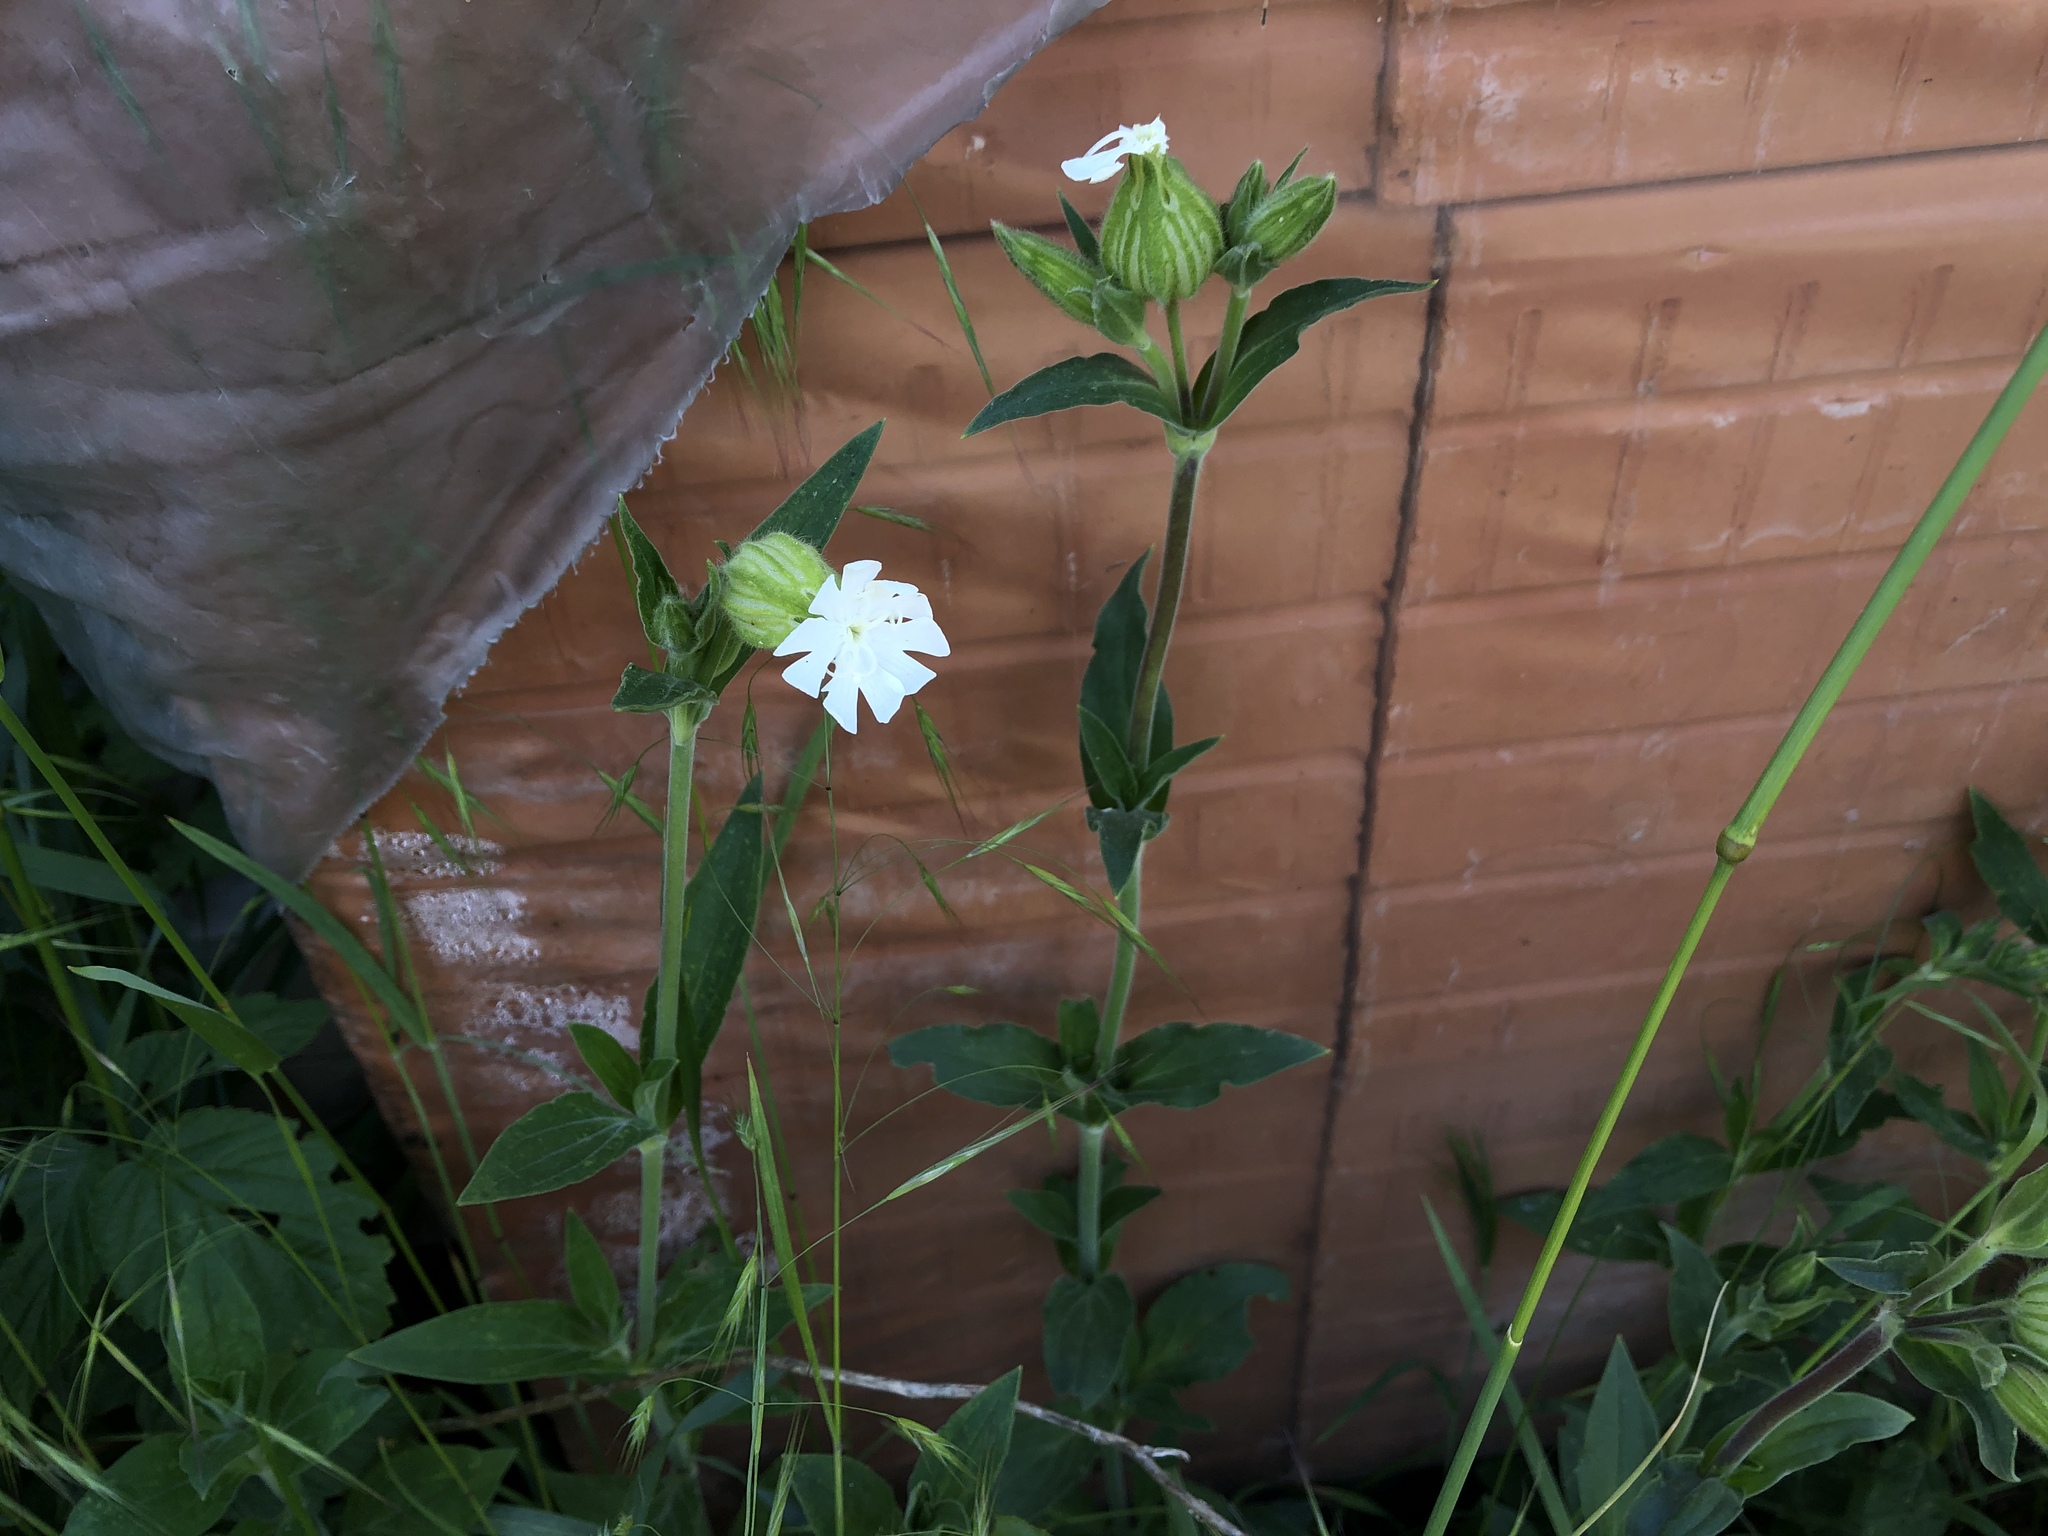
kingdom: Plantae
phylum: Tracheophyta
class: Magnoliopsida
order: Caryophyllales
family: Caryophyllaceae
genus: Silene
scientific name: Silene latifolia
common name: White campion
